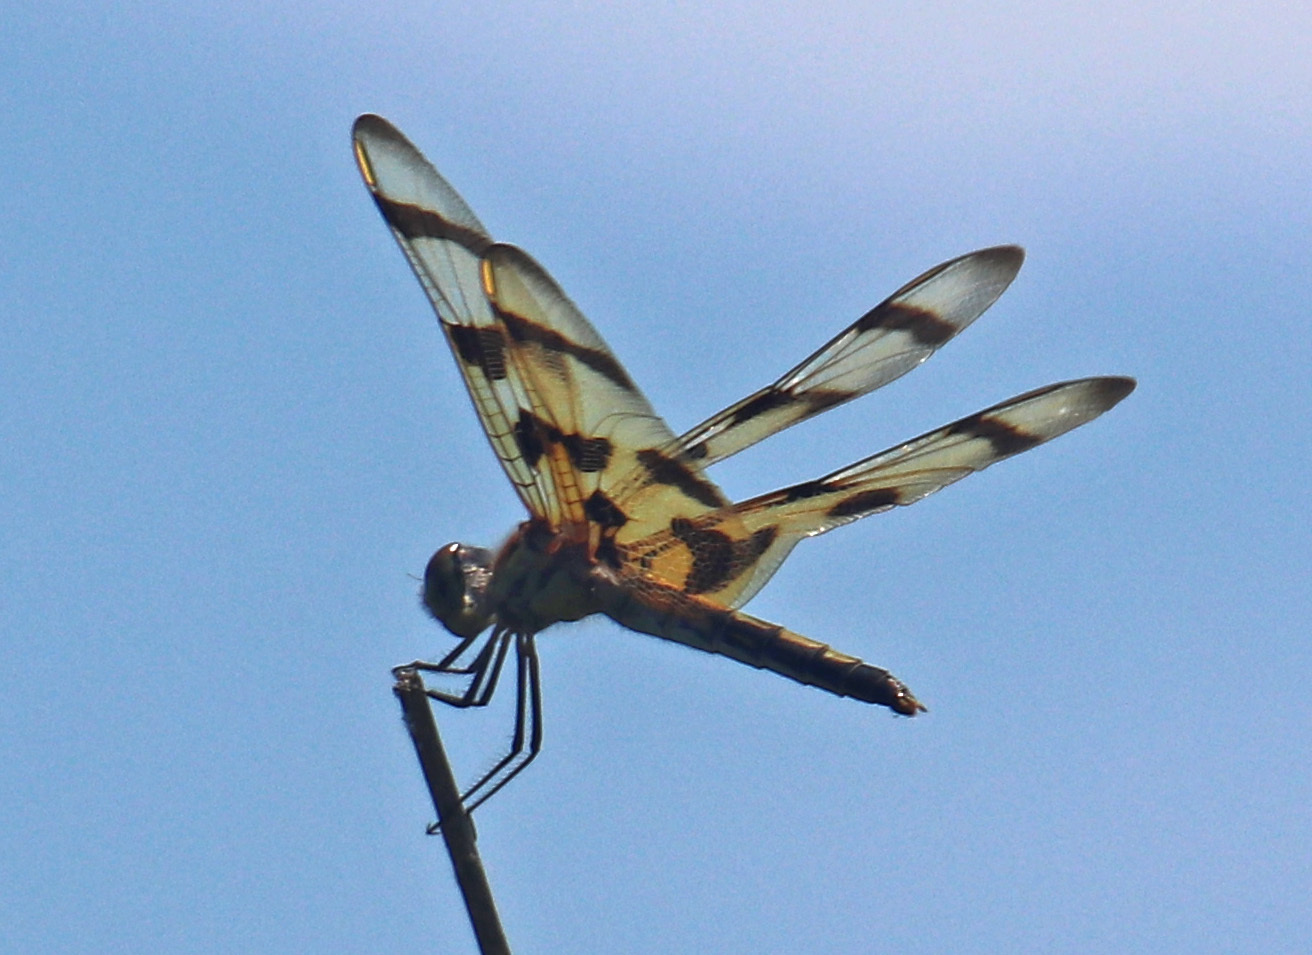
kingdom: Animalia
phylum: Arthropoda
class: Insecta
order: Odonata
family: Libellulidae
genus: Celithemis
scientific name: Celithemis eponina
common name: Halloween pennant
